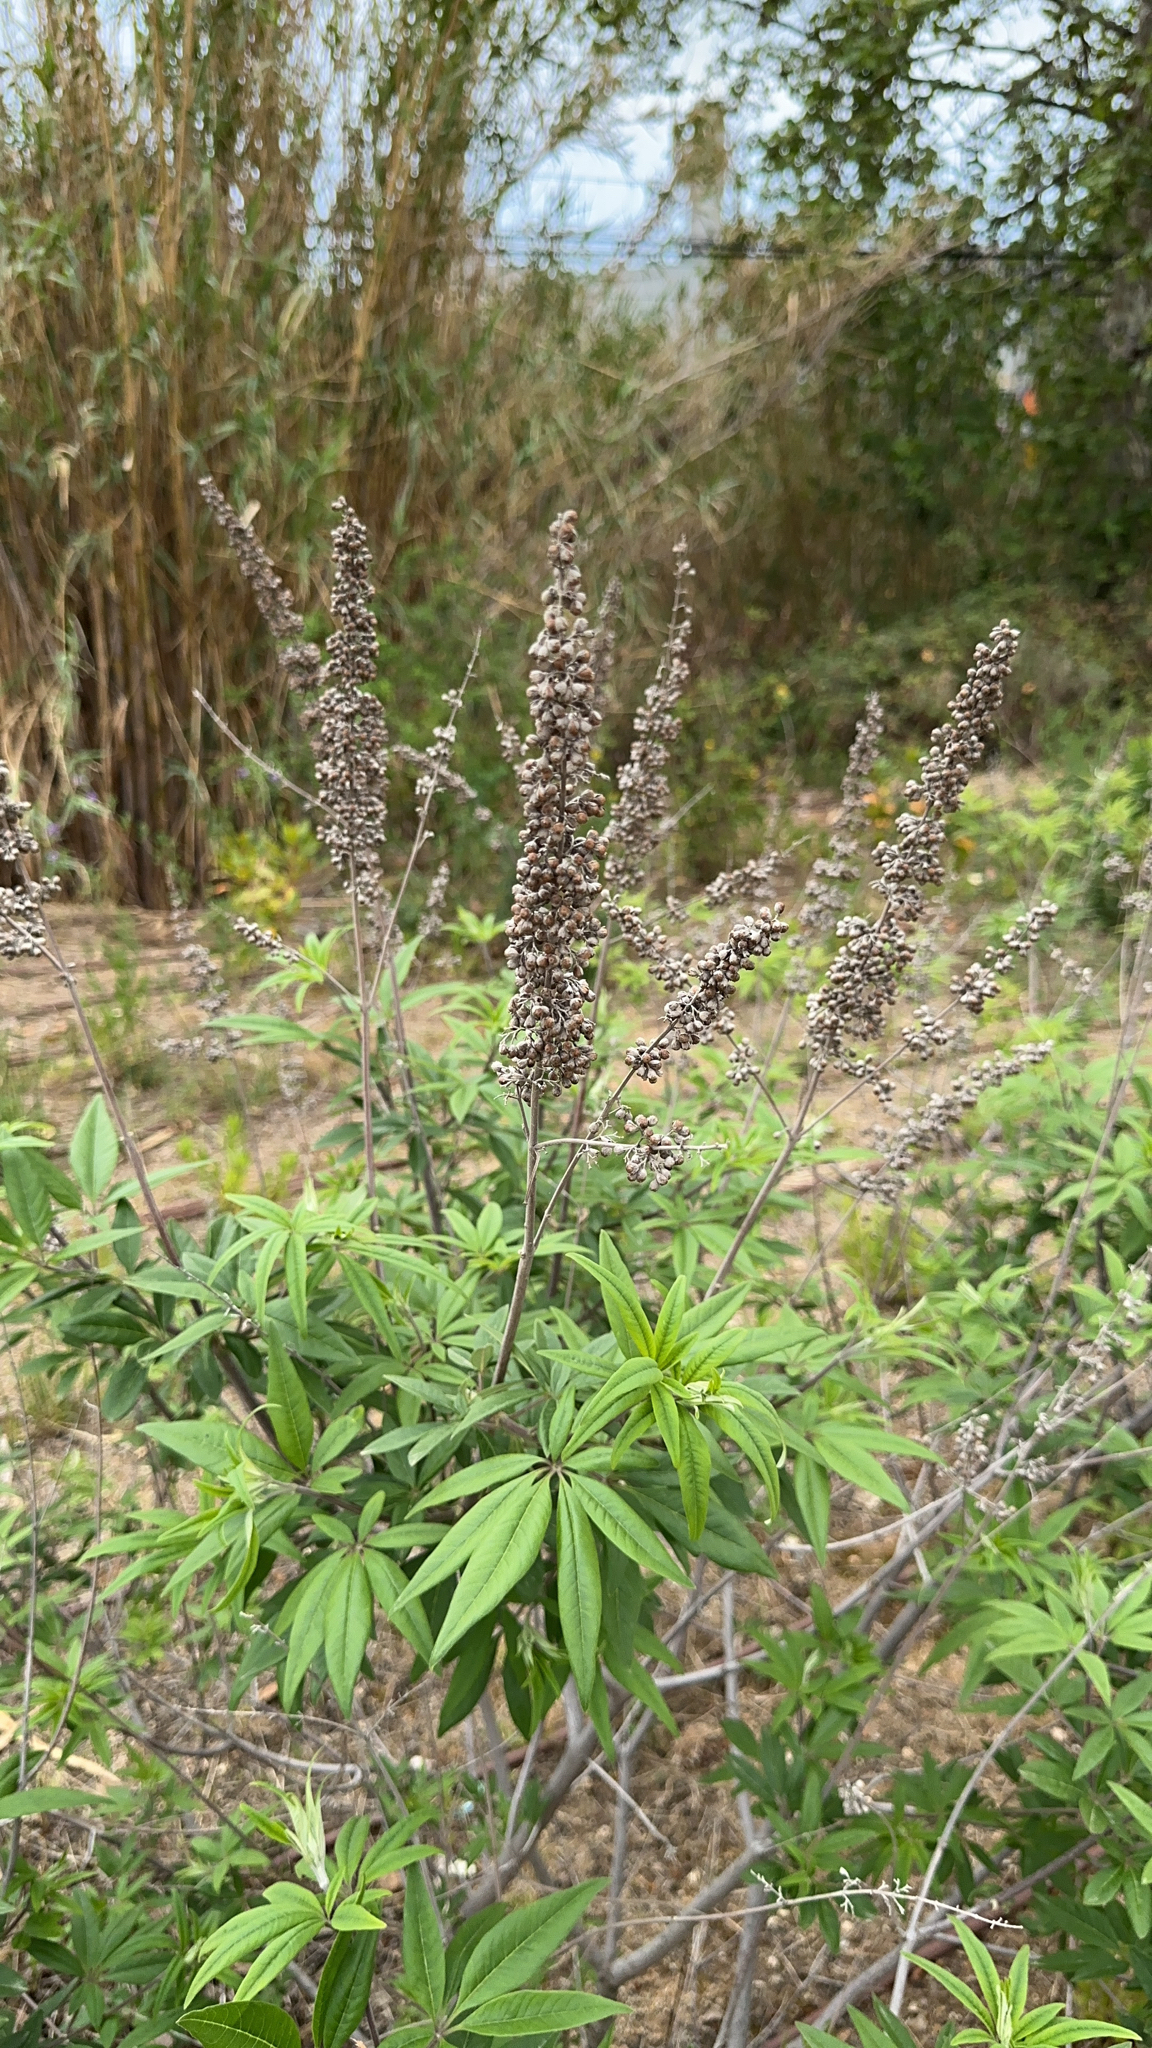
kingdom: Plantae
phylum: Tracheophyta
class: Magnoliopsida
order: Lamiales
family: Lamiaceae
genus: Vitex
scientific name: Vitex agnus-castus
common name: Chasteberry
